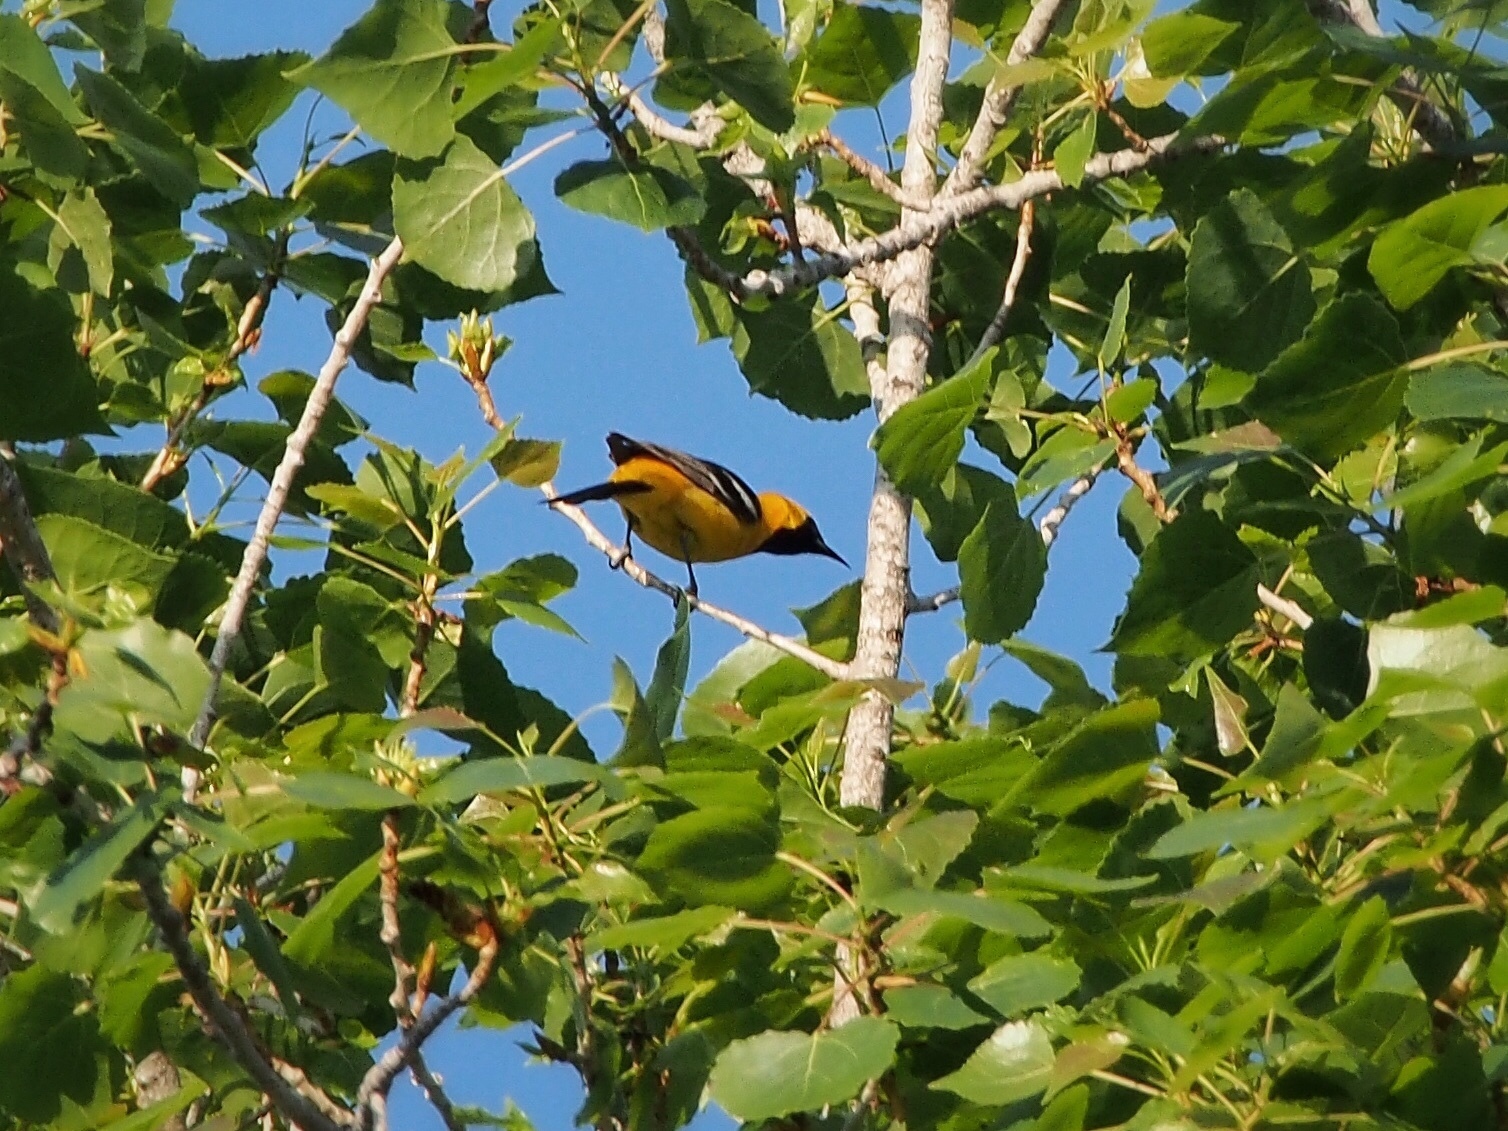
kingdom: Animalia
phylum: Chordata
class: Aves
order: Passeriformes
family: Icteridae
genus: Icterus
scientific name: Icterus cucullatus
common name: Hooded oriole
